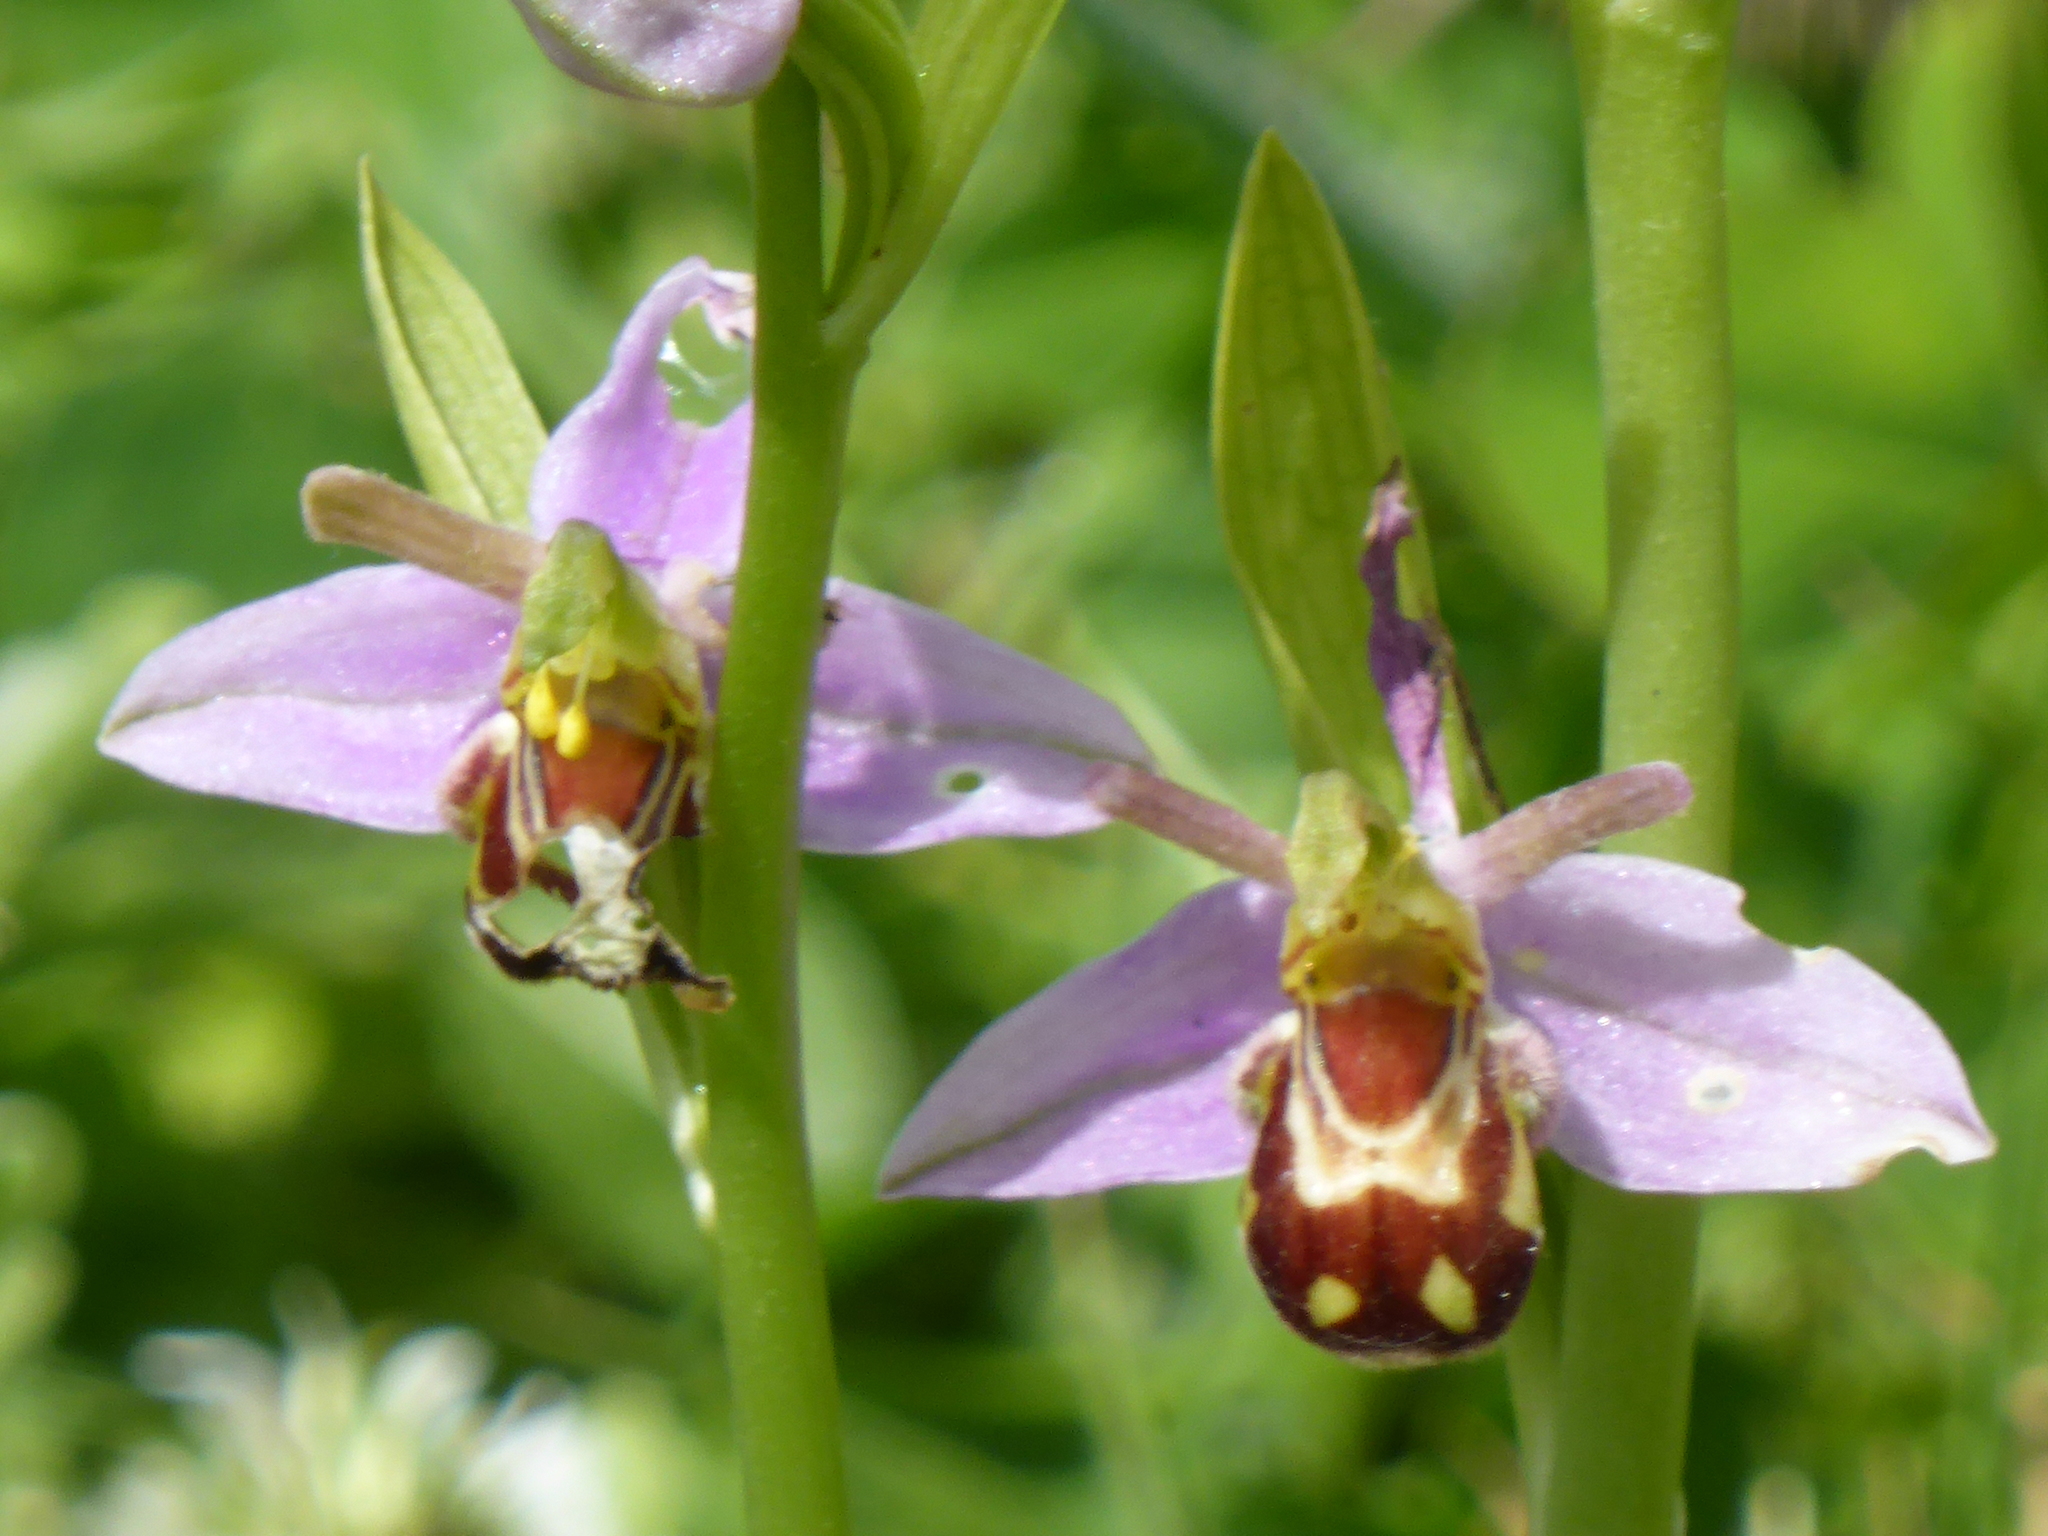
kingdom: Plantae
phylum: Tracheophyta
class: Liliopsida
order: Asparagales
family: Orchidaceae
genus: Ophrys
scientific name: Ophrys apifera
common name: Bee orchid
